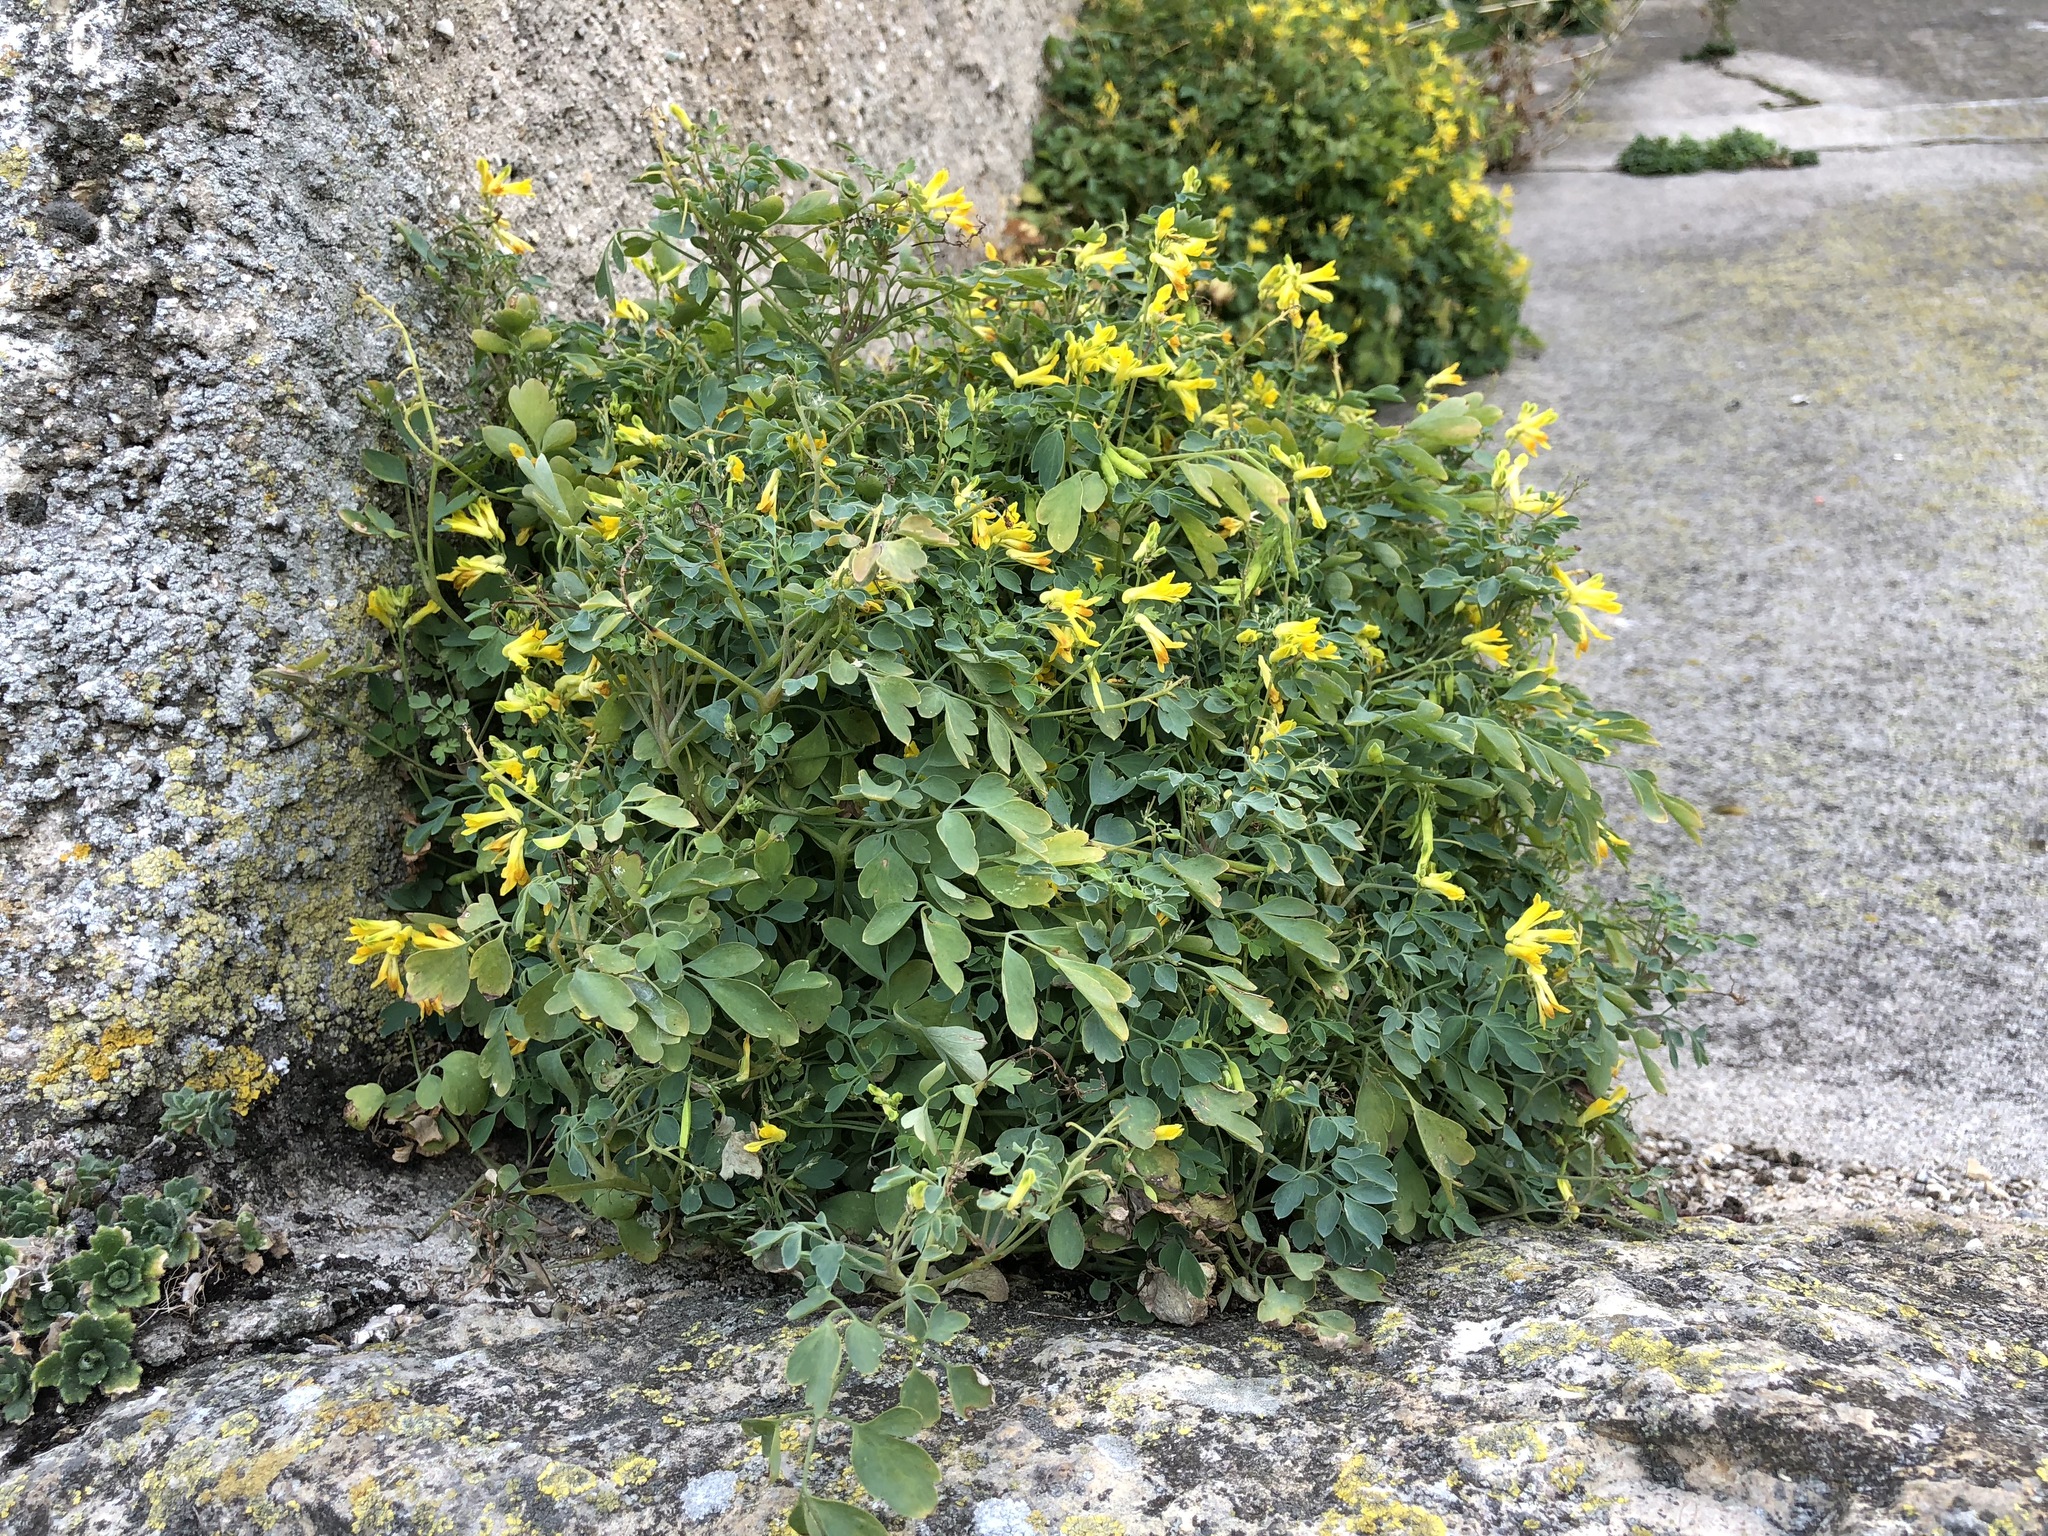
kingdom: Plantae
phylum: Tracheophyta
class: Magnoliopsida
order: Ranunculales
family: Papaveraceae
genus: Pseudofumaria
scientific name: Pseudofumaria lutea
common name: Yellow corydalis
